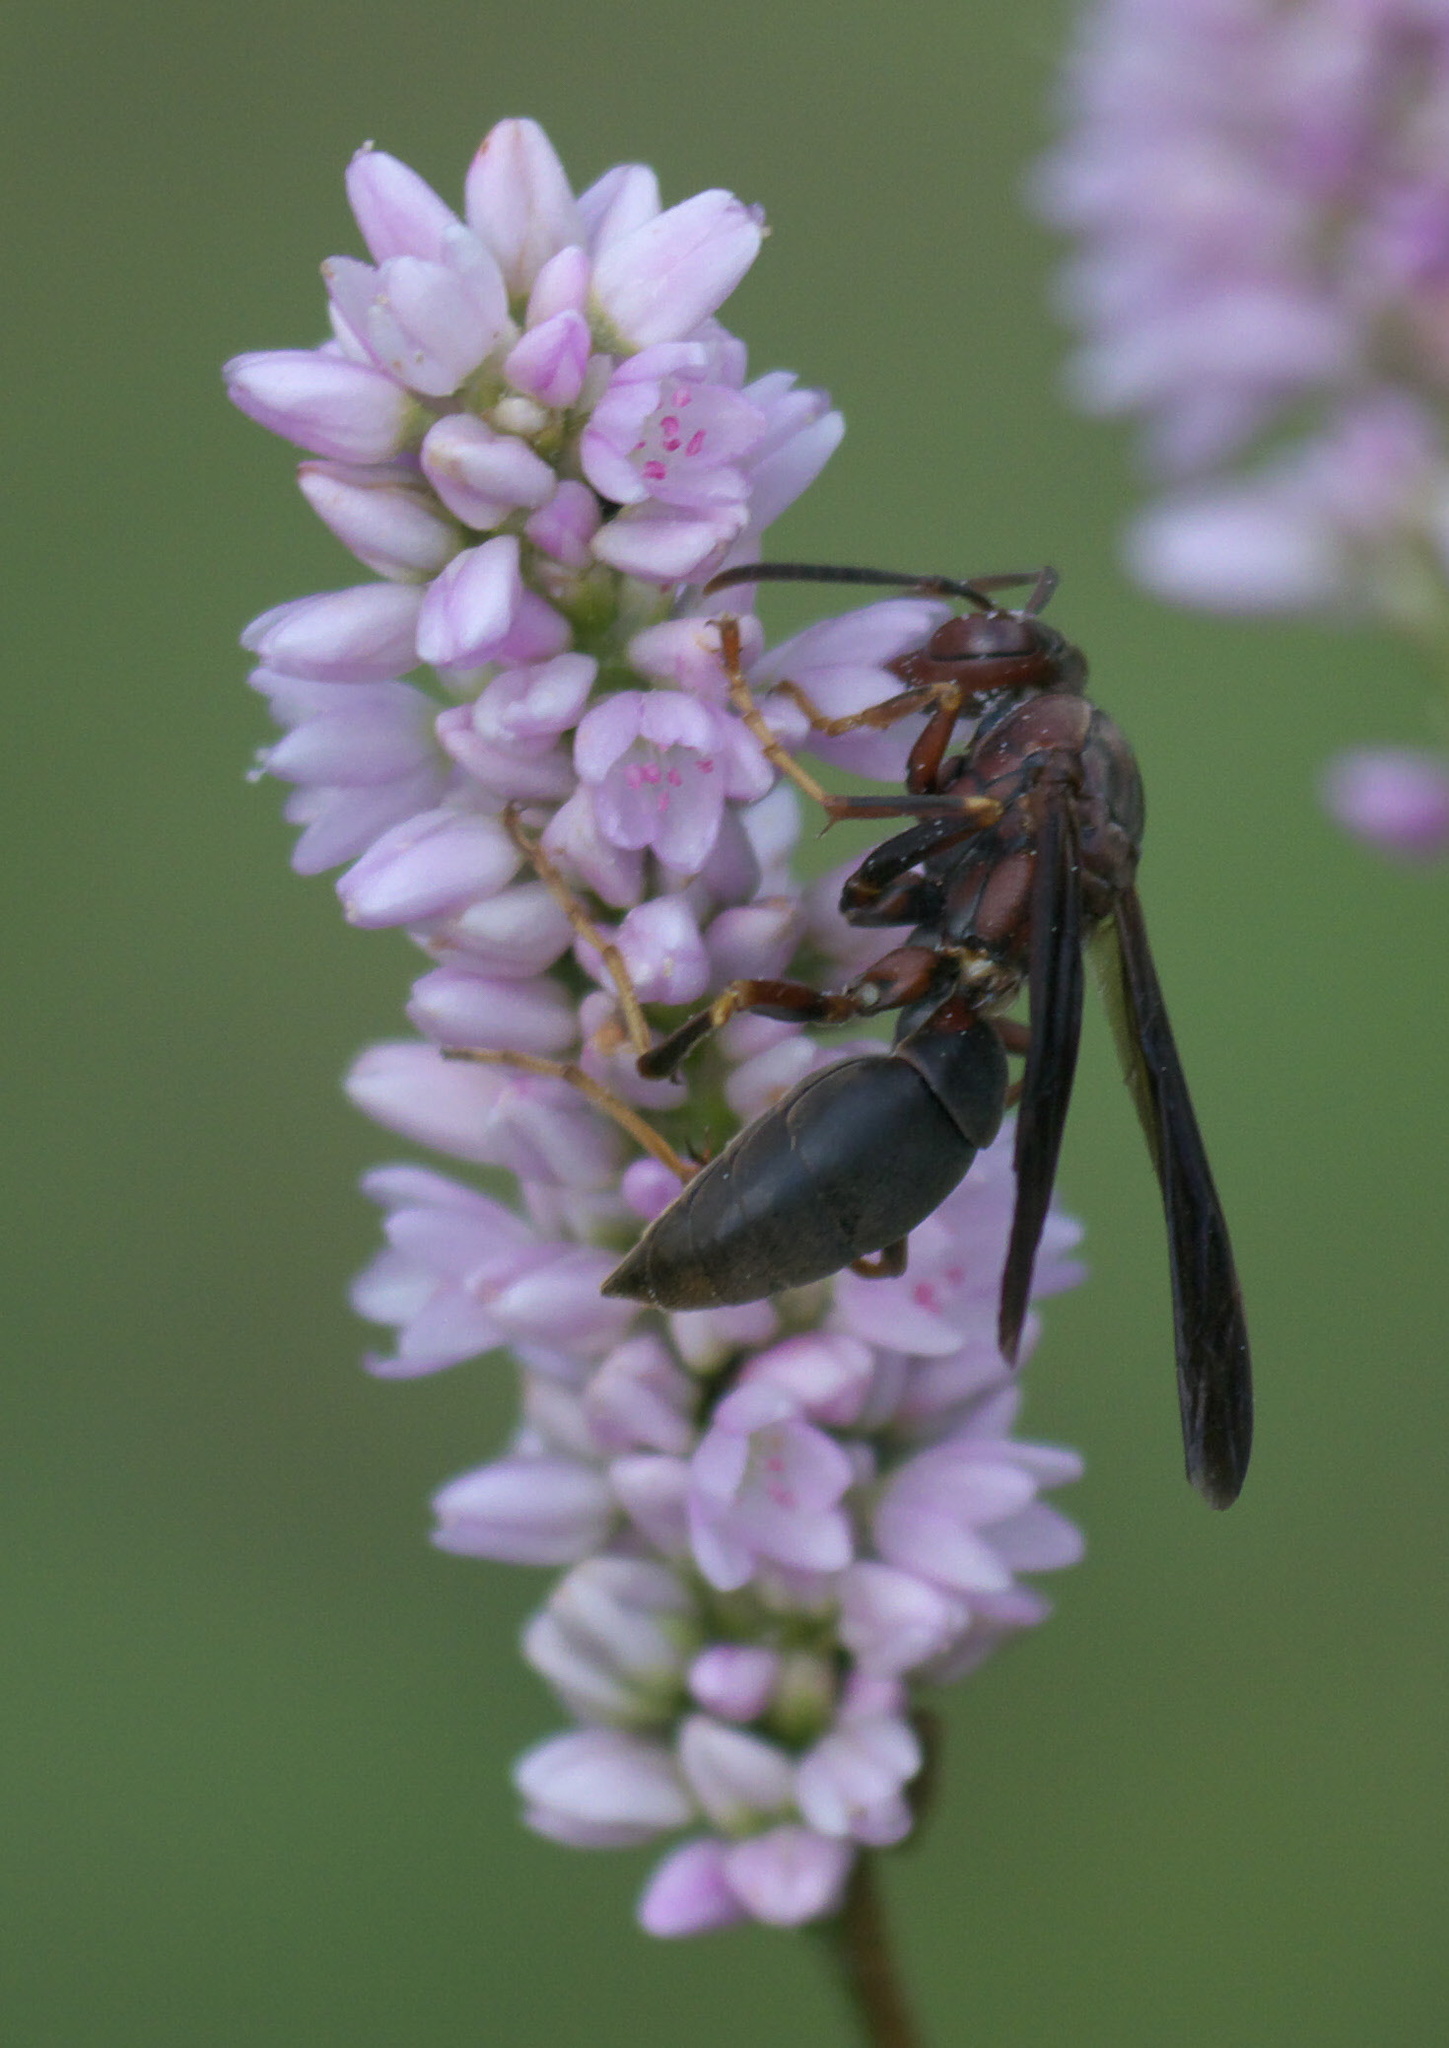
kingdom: Animalia
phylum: Arthropoda
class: Insecta
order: Hymenoptera
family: Eumenidae
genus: Polistes
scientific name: Polistes metricus
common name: Metric paper wasp
